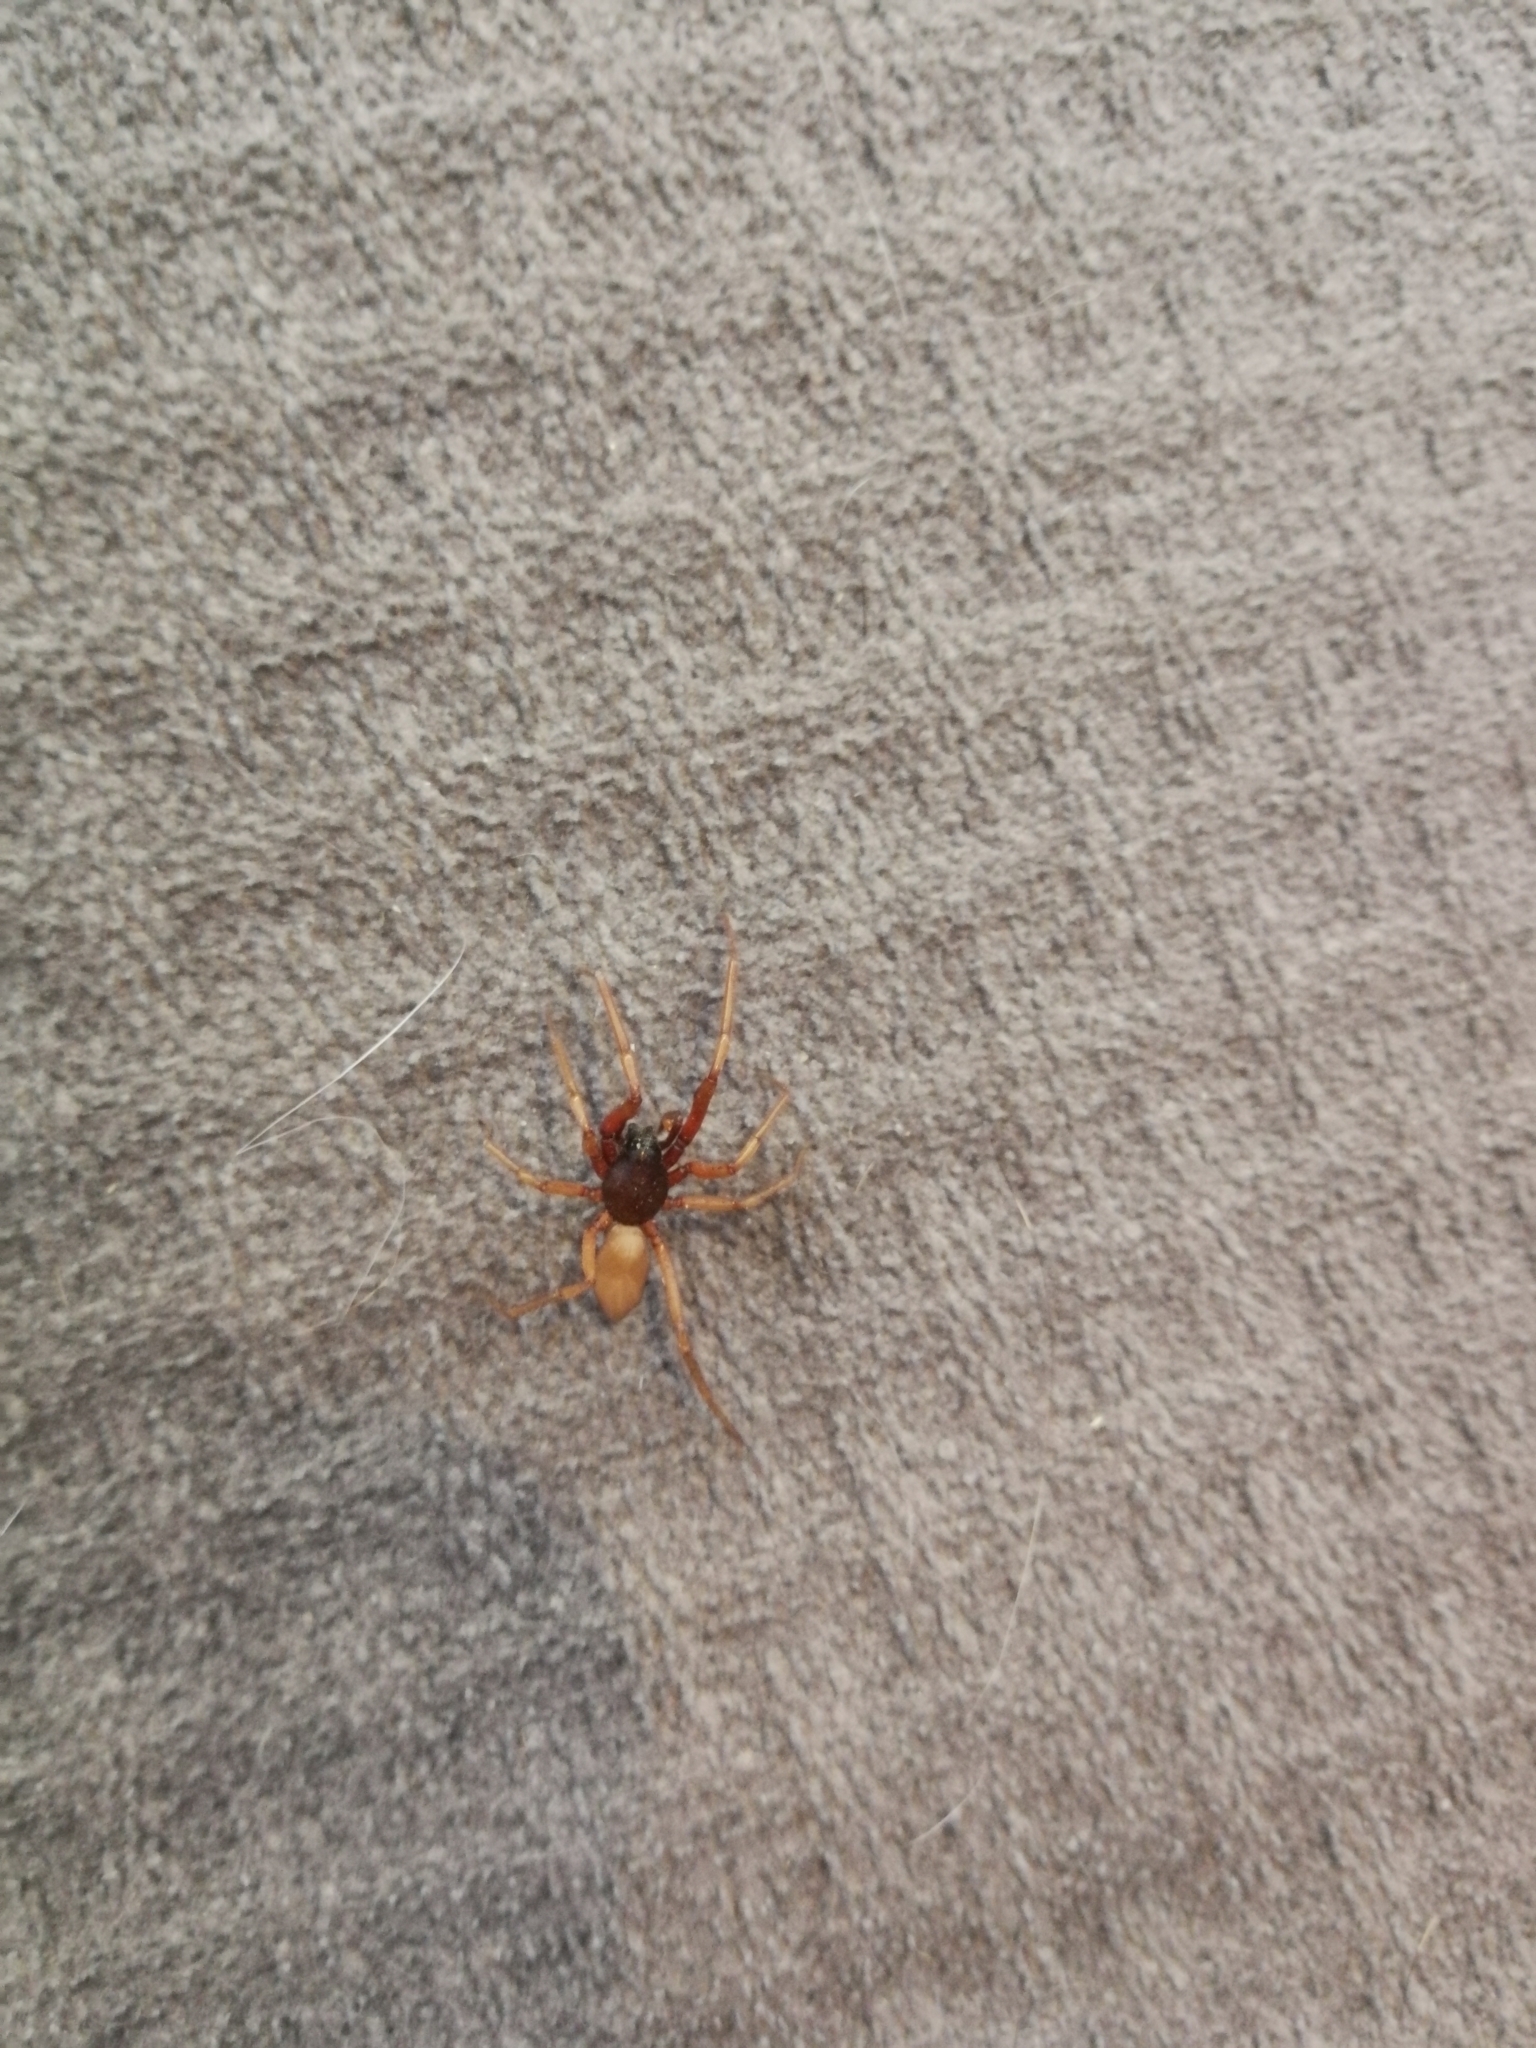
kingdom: Animalia
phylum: Arthropoda
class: Arachnida
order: Araneae
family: Dysderidae
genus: Harpactea
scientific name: Harpactea rubicunda
